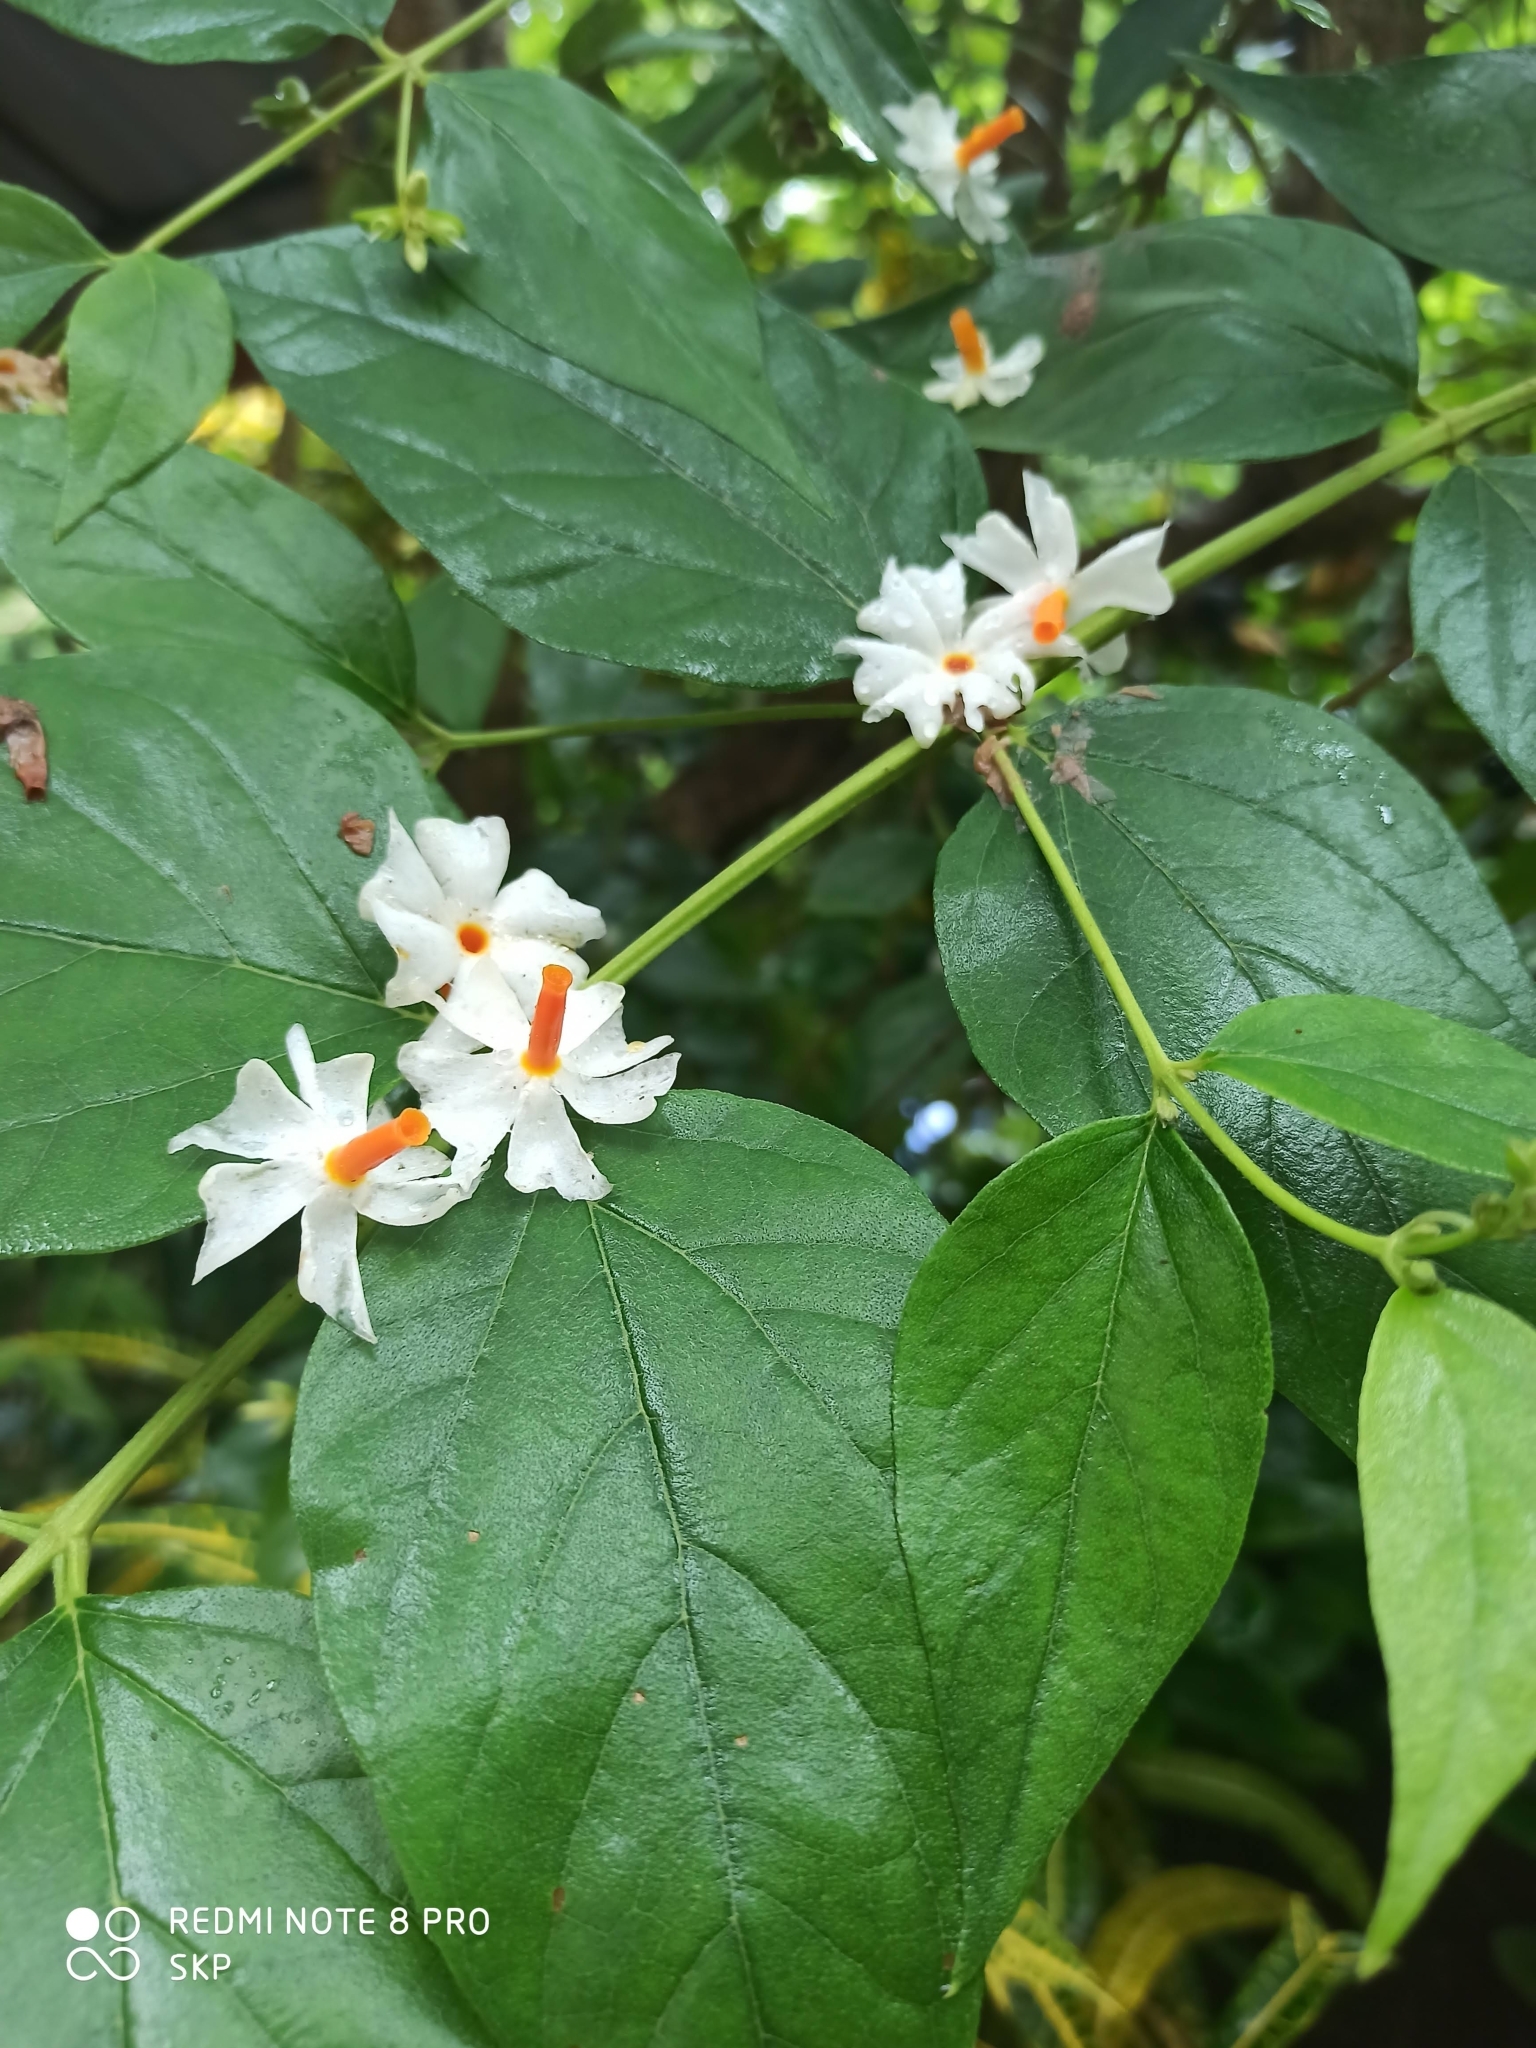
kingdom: Plantae
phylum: Tracheophyta
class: Magnoliopsida
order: Lamiales
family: Oleaceae
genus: Nyctanthes
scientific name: Nyctanthes arbor-tristis
